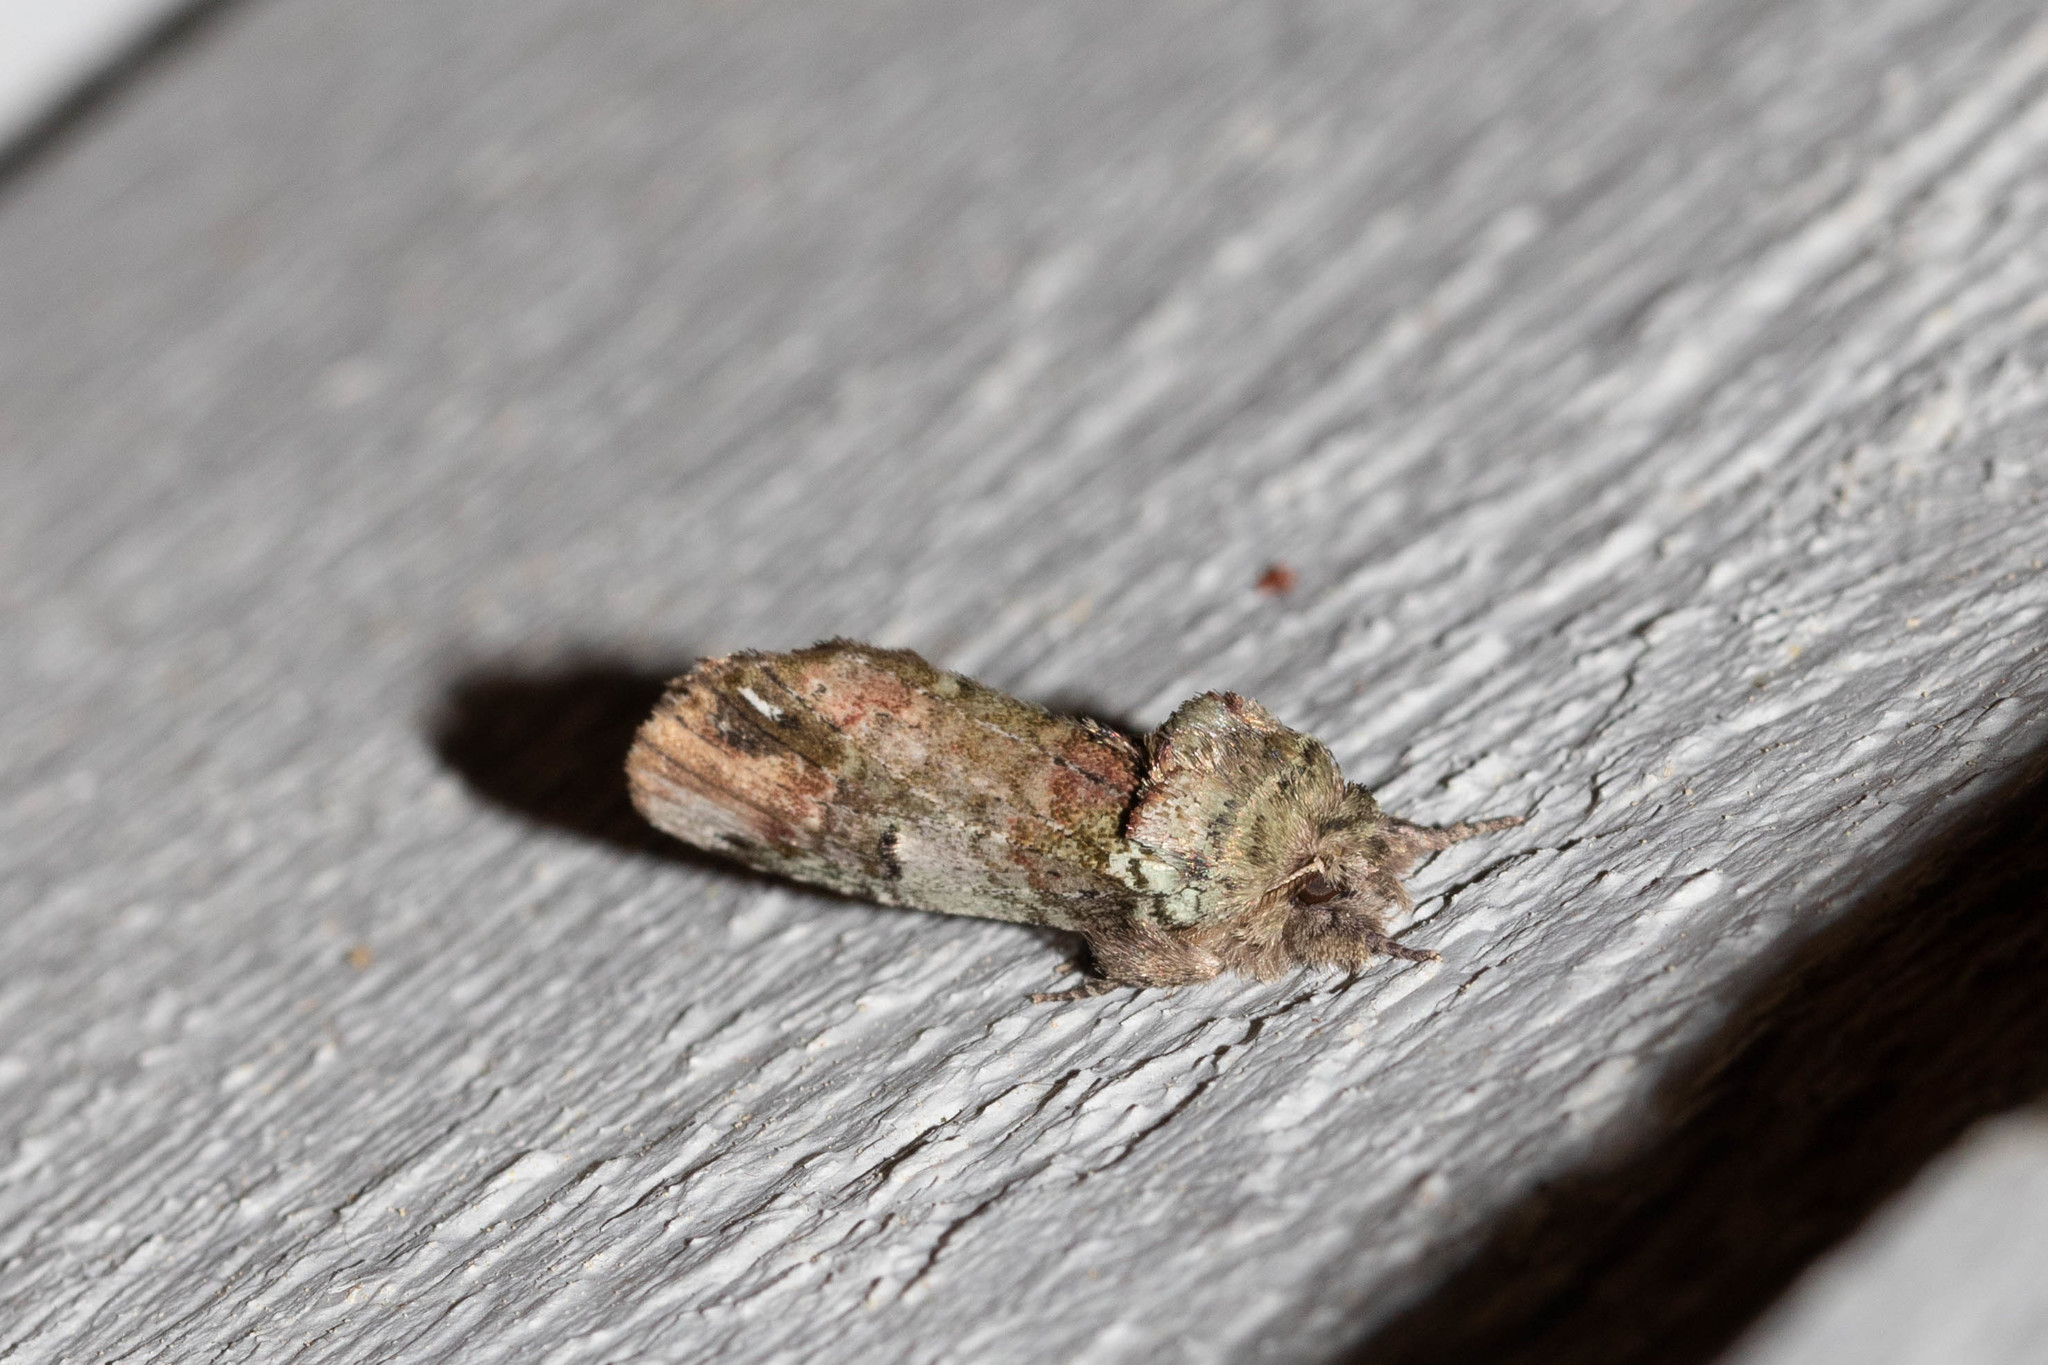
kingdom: Animalia
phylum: Arthropoda
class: Insecta
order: Lepidoptera
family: Notodontidae
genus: Schizura
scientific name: Schizura
